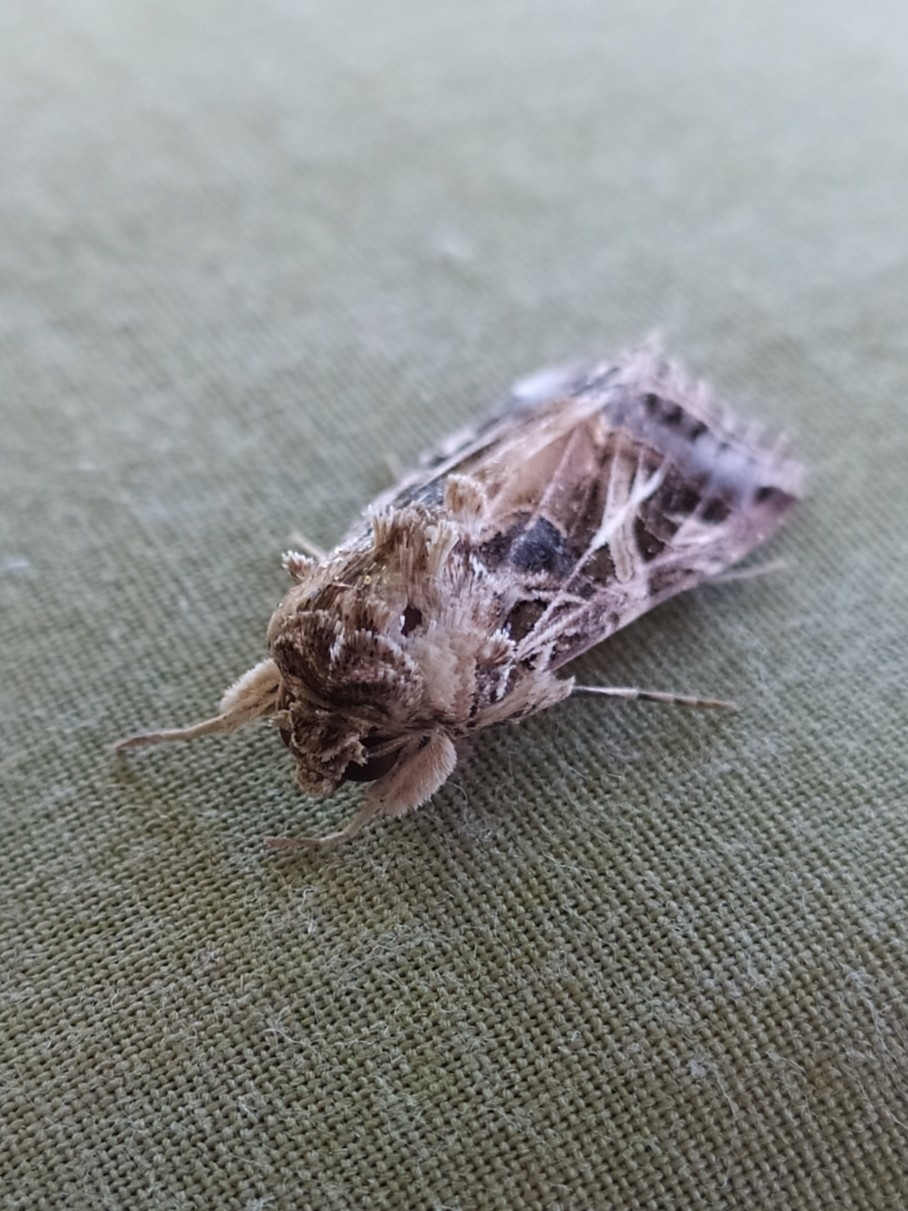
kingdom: Animalia
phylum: Arthropoda
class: Insecta
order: Lepidoptera
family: Noctuidae
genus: Spodoptera
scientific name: Spodoptera littoralis
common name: Egyptian cotton leafworm
